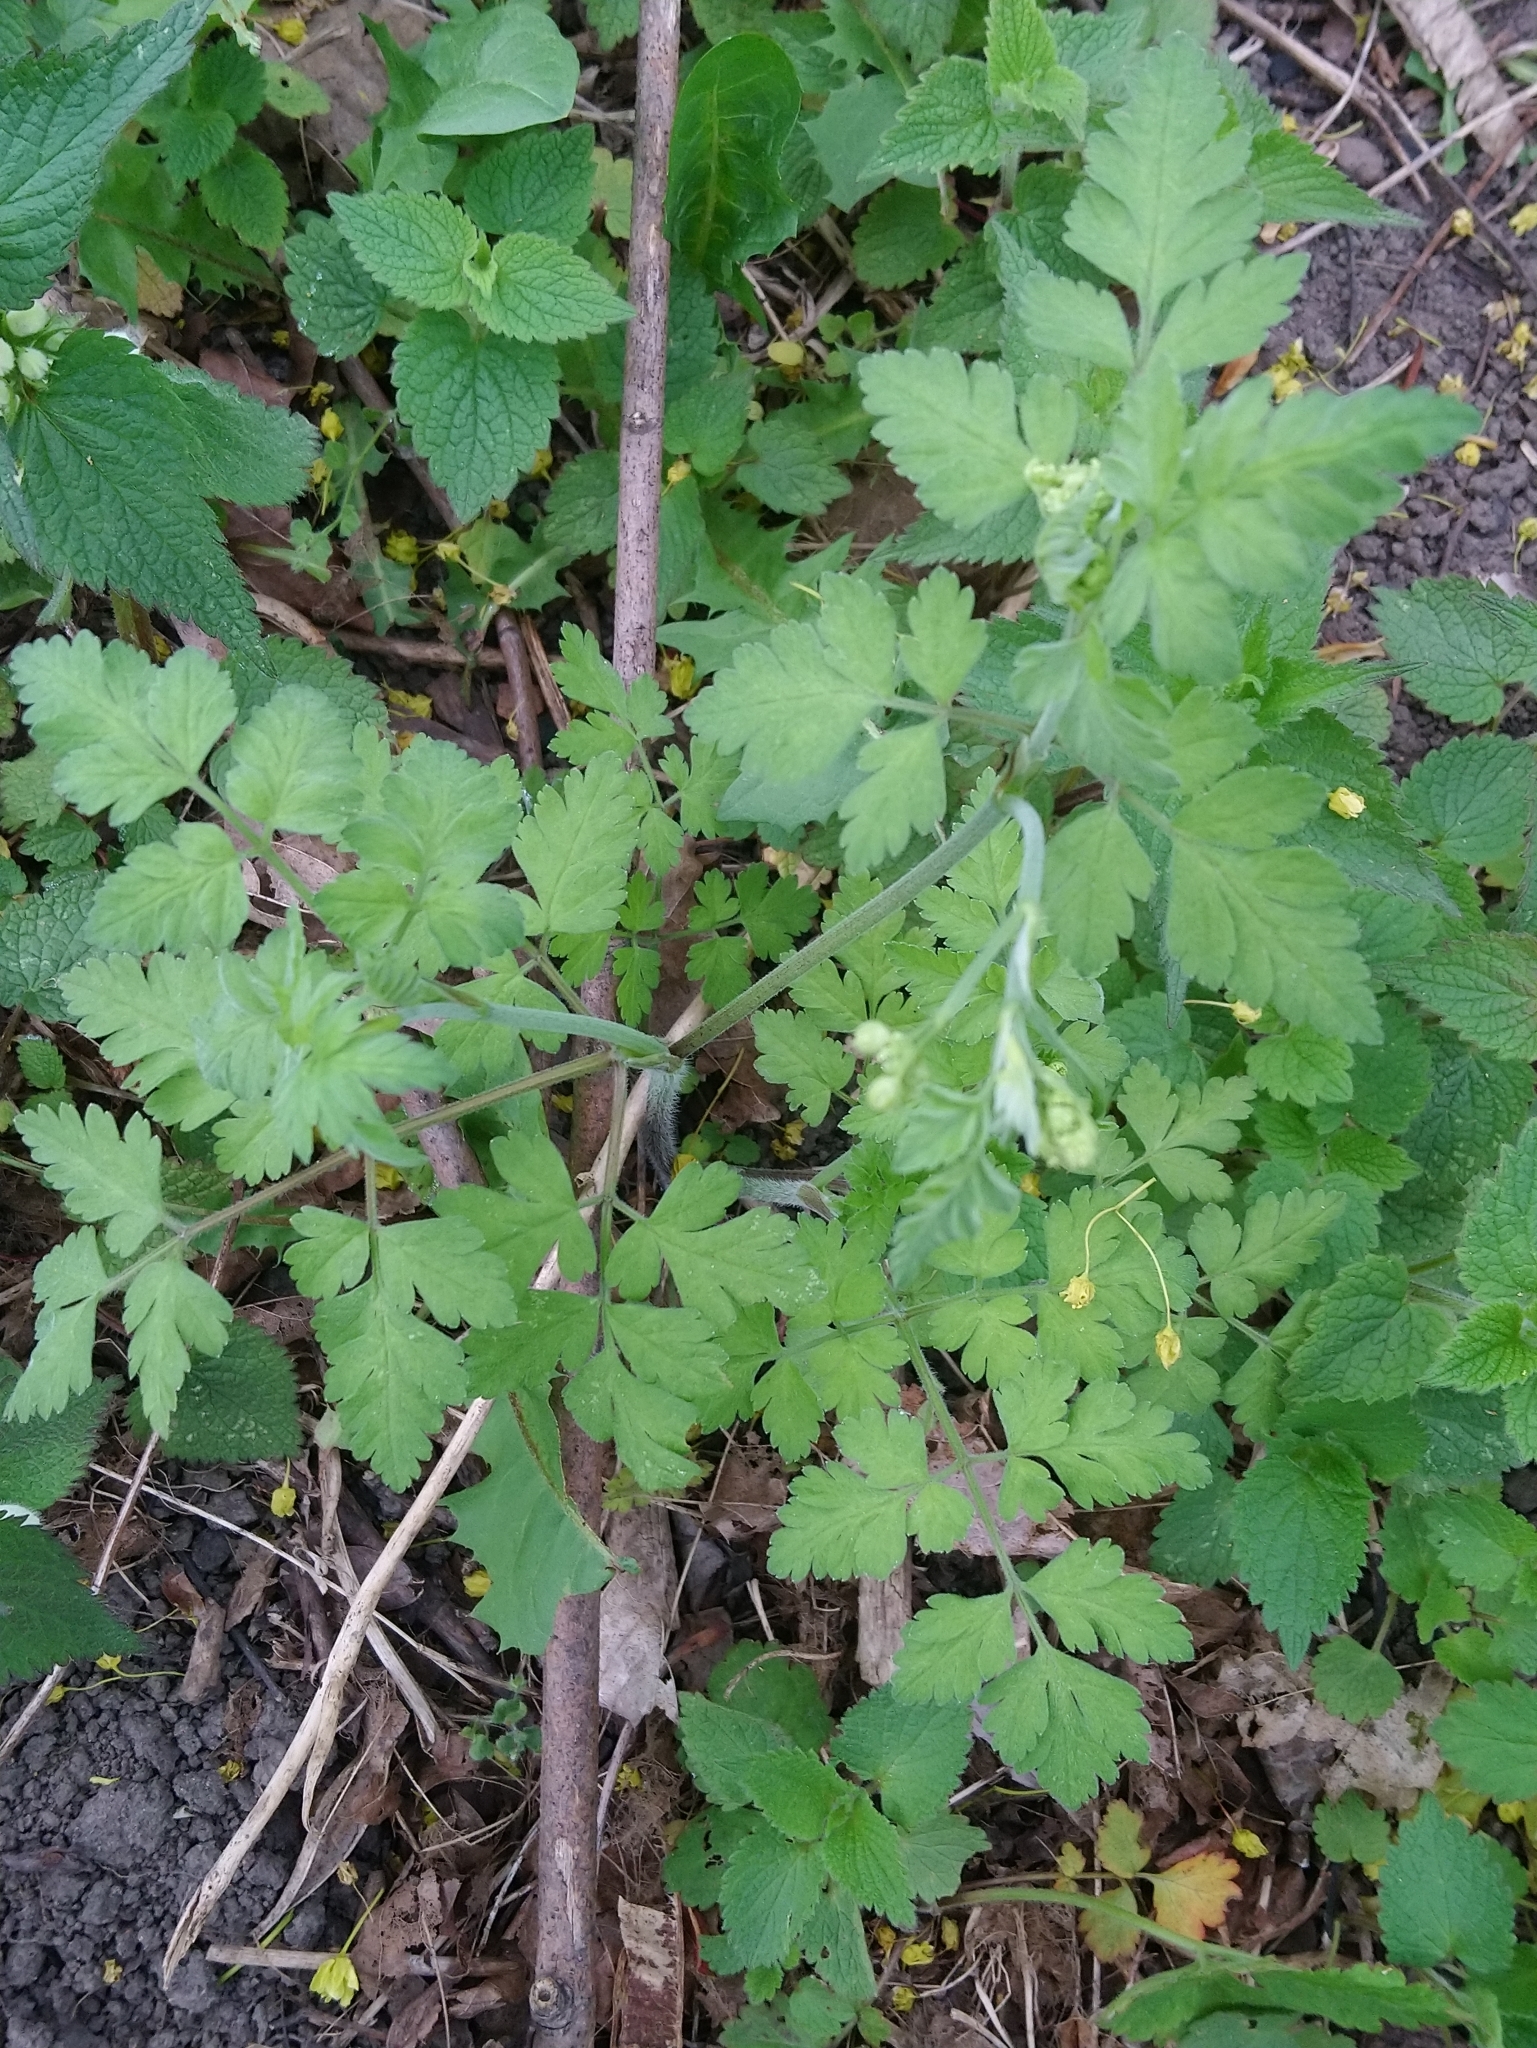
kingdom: Plantae
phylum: Tracheophyta
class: Magnoliopsida
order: Apiales
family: Apiaceae
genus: Chaerophyllum
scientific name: Chaerophyllum temulum
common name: Rough chervil
